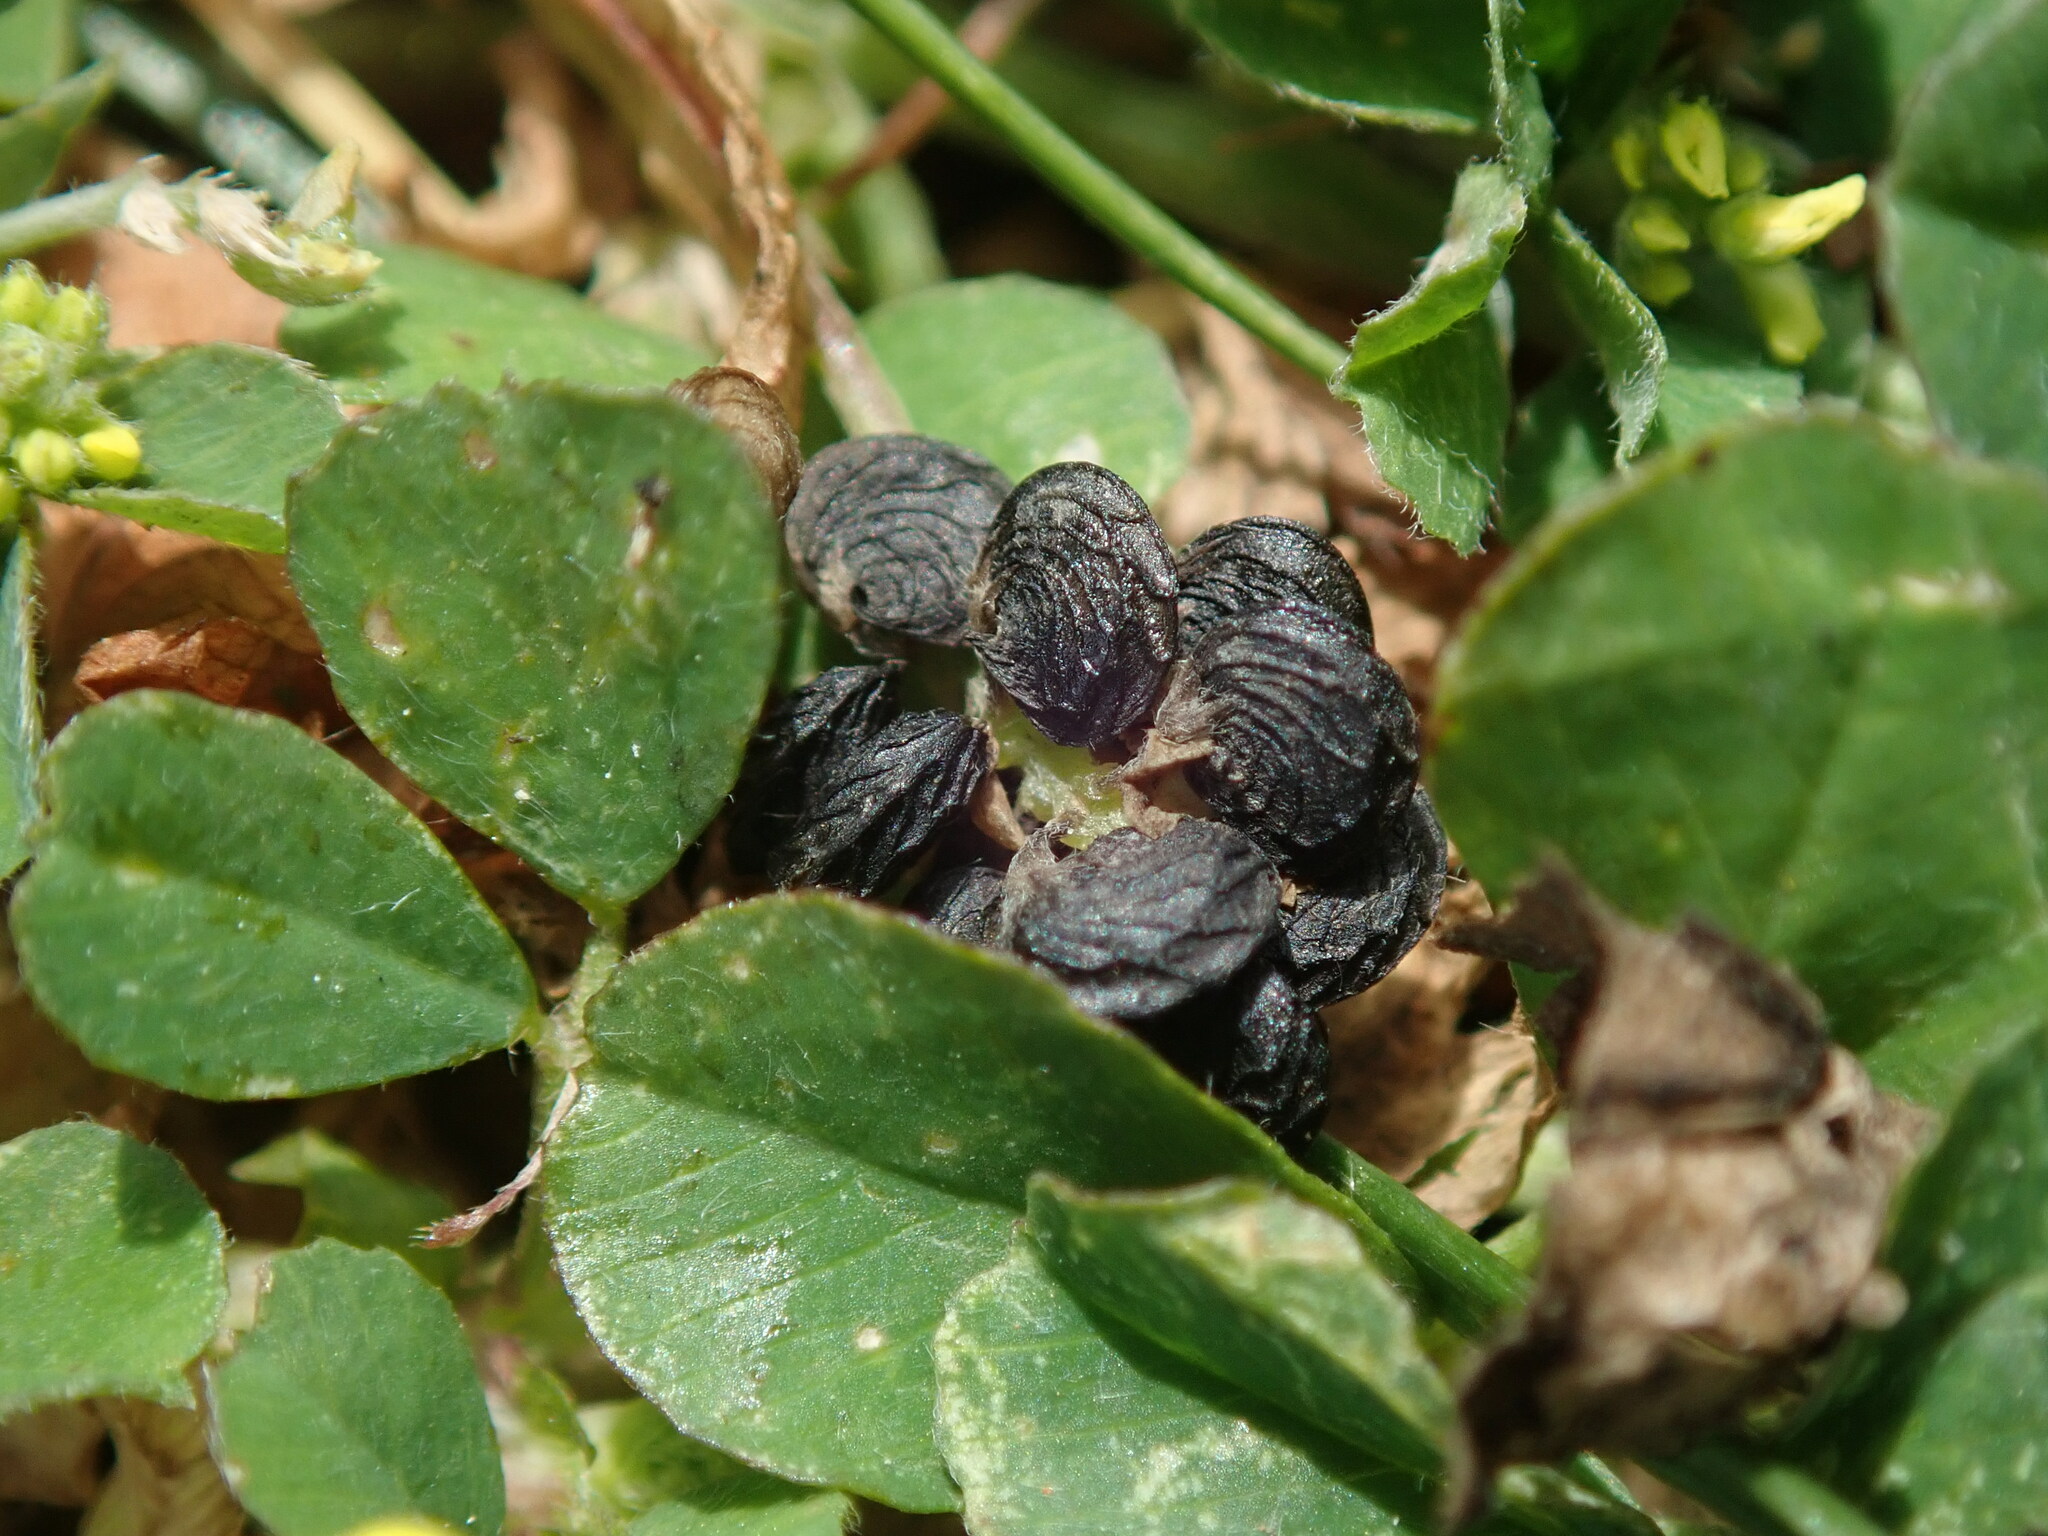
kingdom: Plantae
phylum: Tracheophyta
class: Magnoliopsida
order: Fabales
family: Fabaceae
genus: Medicago
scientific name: Medicago lupulina
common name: Black medick
